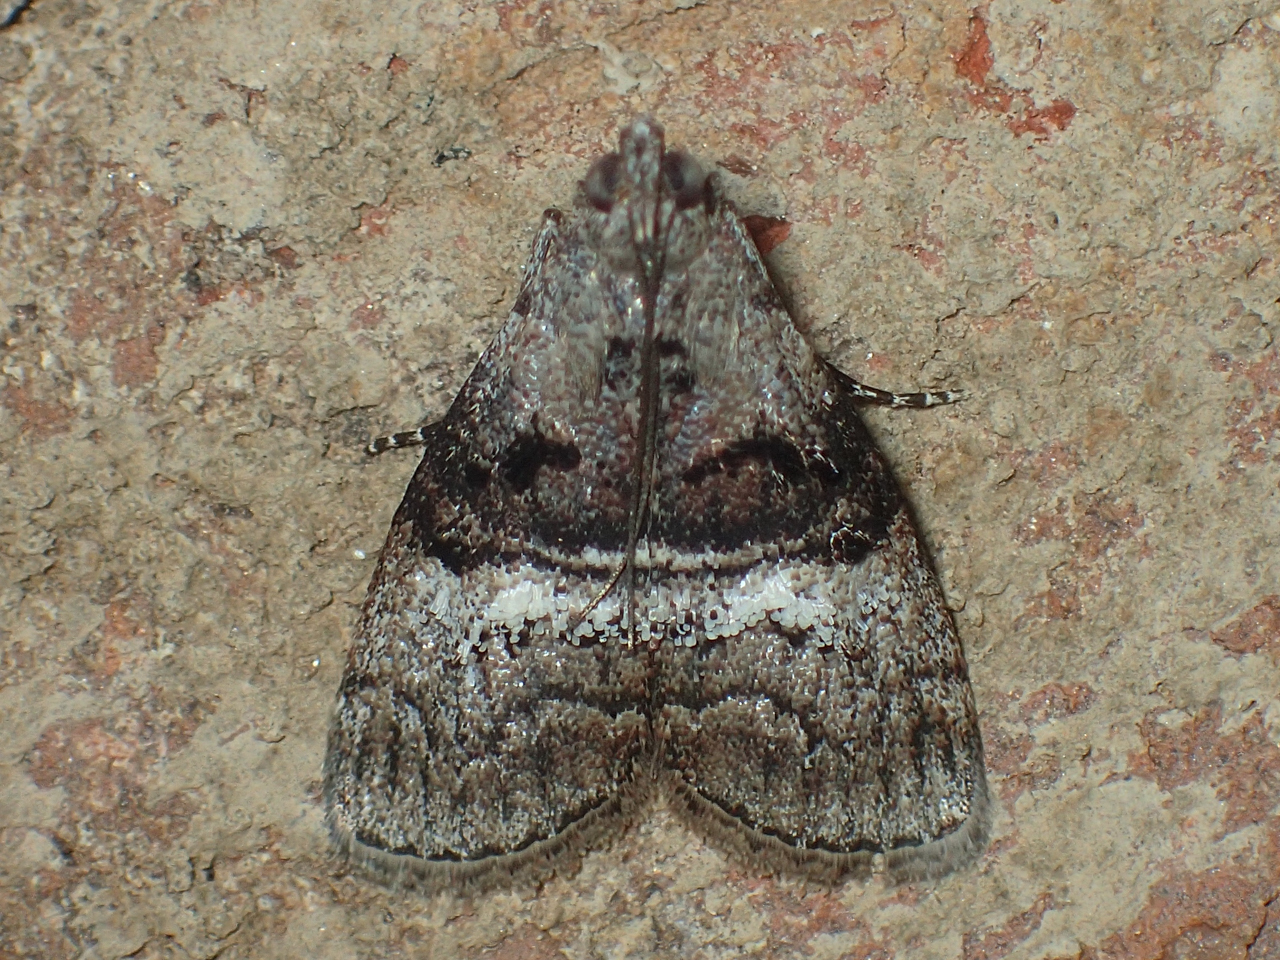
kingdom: Animalia
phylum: Arthropoda
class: Insecta
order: Lepidoptera
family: Pyralidae
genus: Pococera
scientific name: Pococera asperatella
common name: Maple webworm moth
